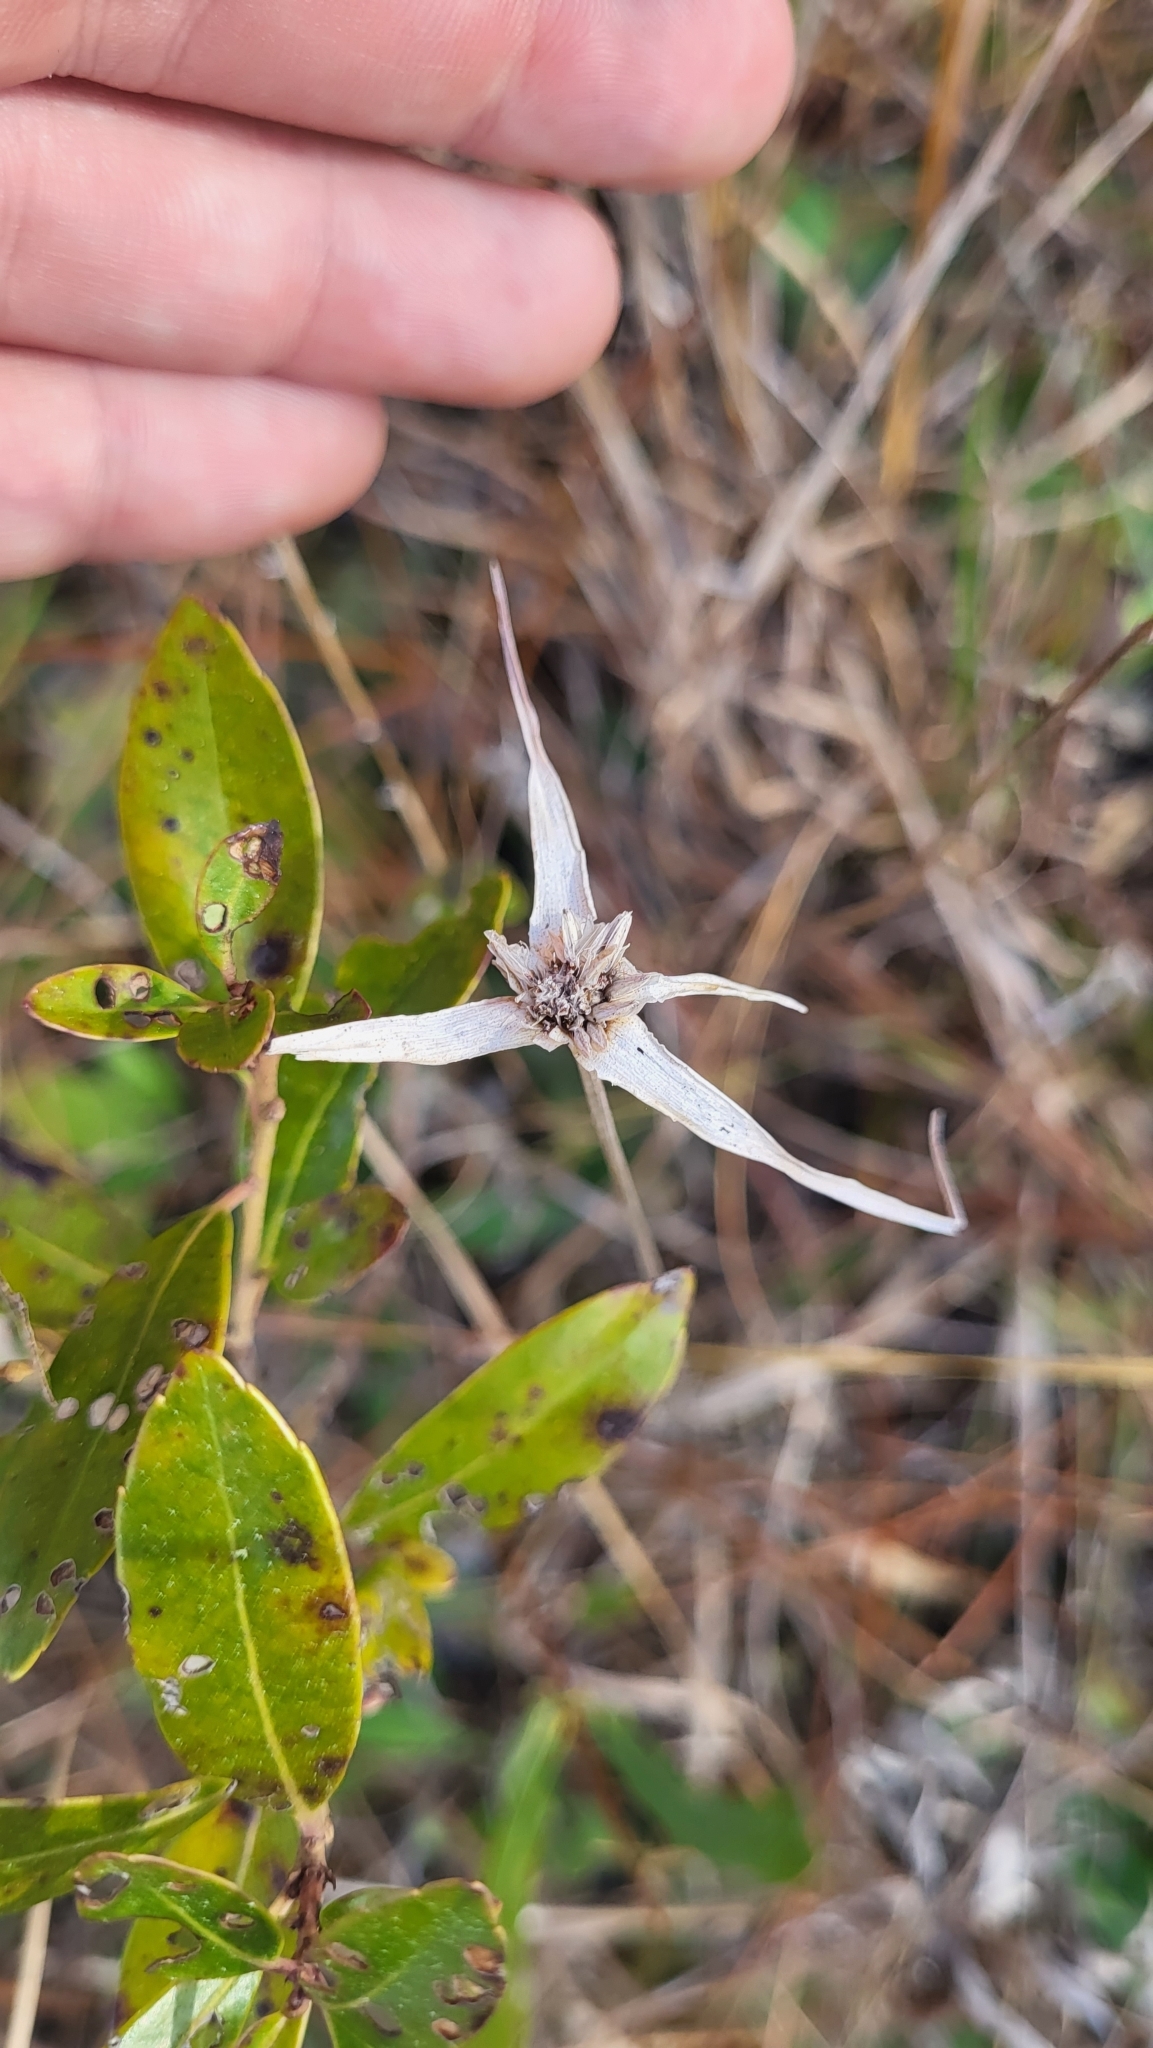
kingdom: Plantae
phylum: Tracheophyta
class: Liliopsida
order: Poales
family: Cyperaceae
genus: Rhynchospora
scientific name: Rhynchospora colorata
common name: Star sedge
